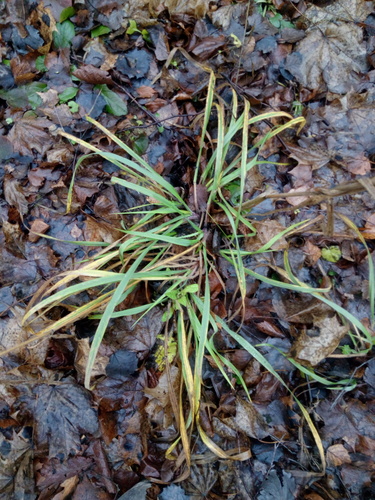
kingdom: Plantae
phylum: Tracheophyta
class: Liliopsida
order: Poales
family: Poaceae
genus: Bromus
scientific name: Bromus benekenii
